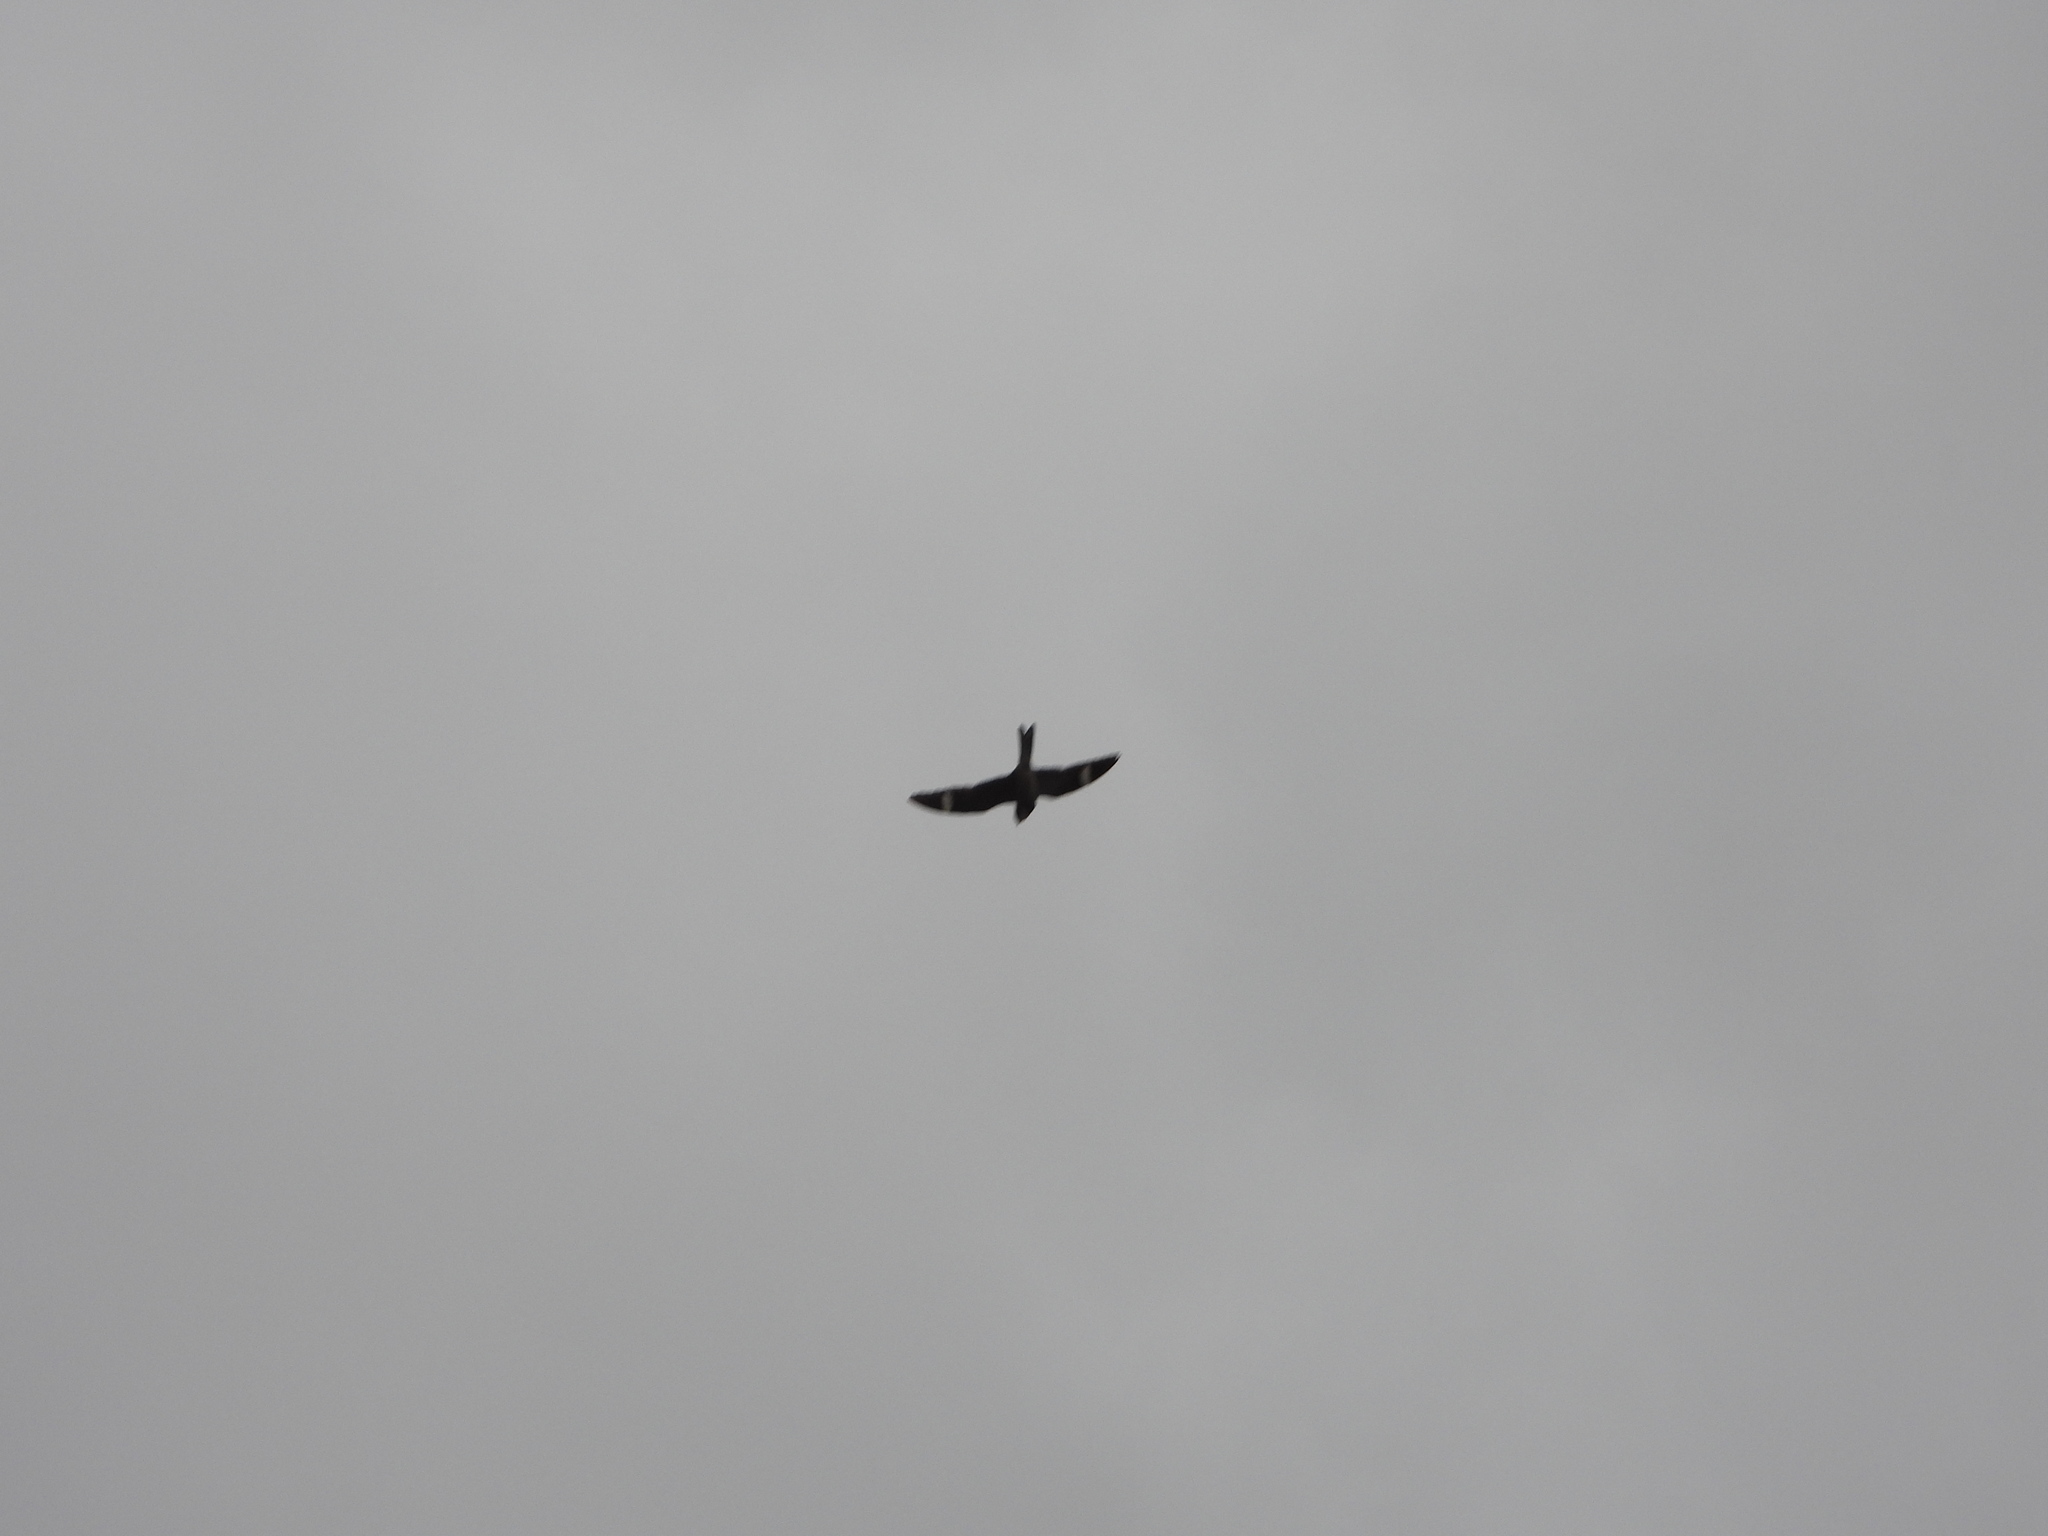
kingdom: Animalia
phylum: Chordata
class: Aves
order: Caprimulgiformes
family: Caprimulgidae
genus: Chordeiles
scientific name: Chordeiles minor
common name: Common nighthawk
